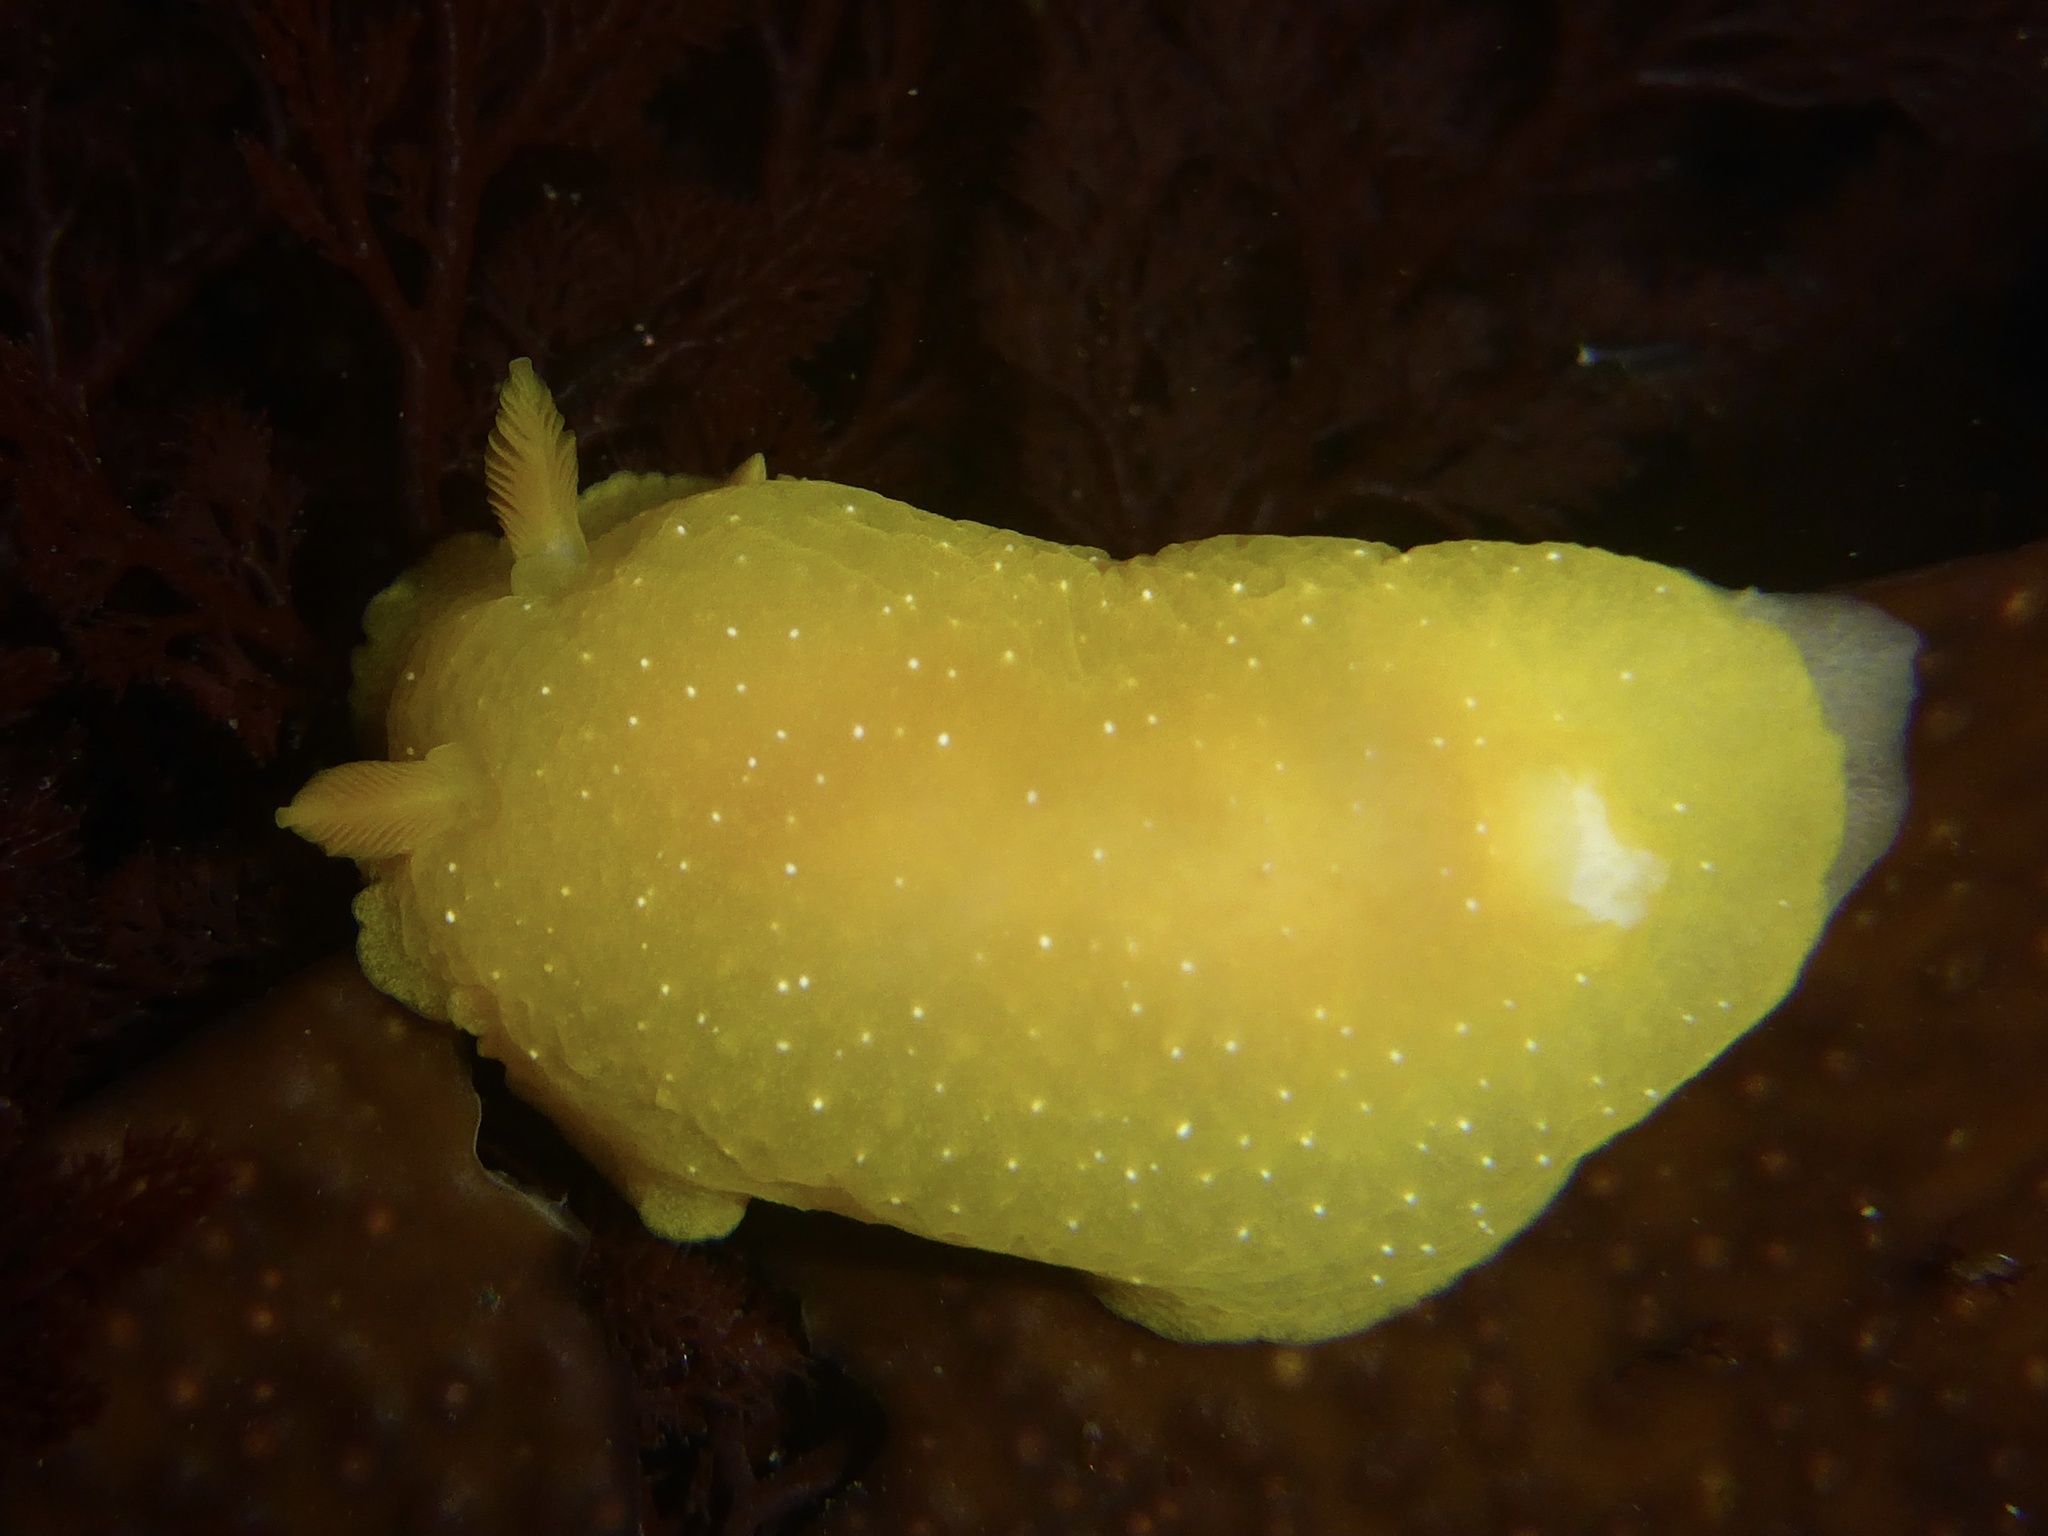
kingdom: Animalia
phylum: Mollusca
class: Gastropoda
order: Nudibranchia
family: Dendrodorididae
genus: Doriopsilla
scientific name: Doriopsilla fulva
